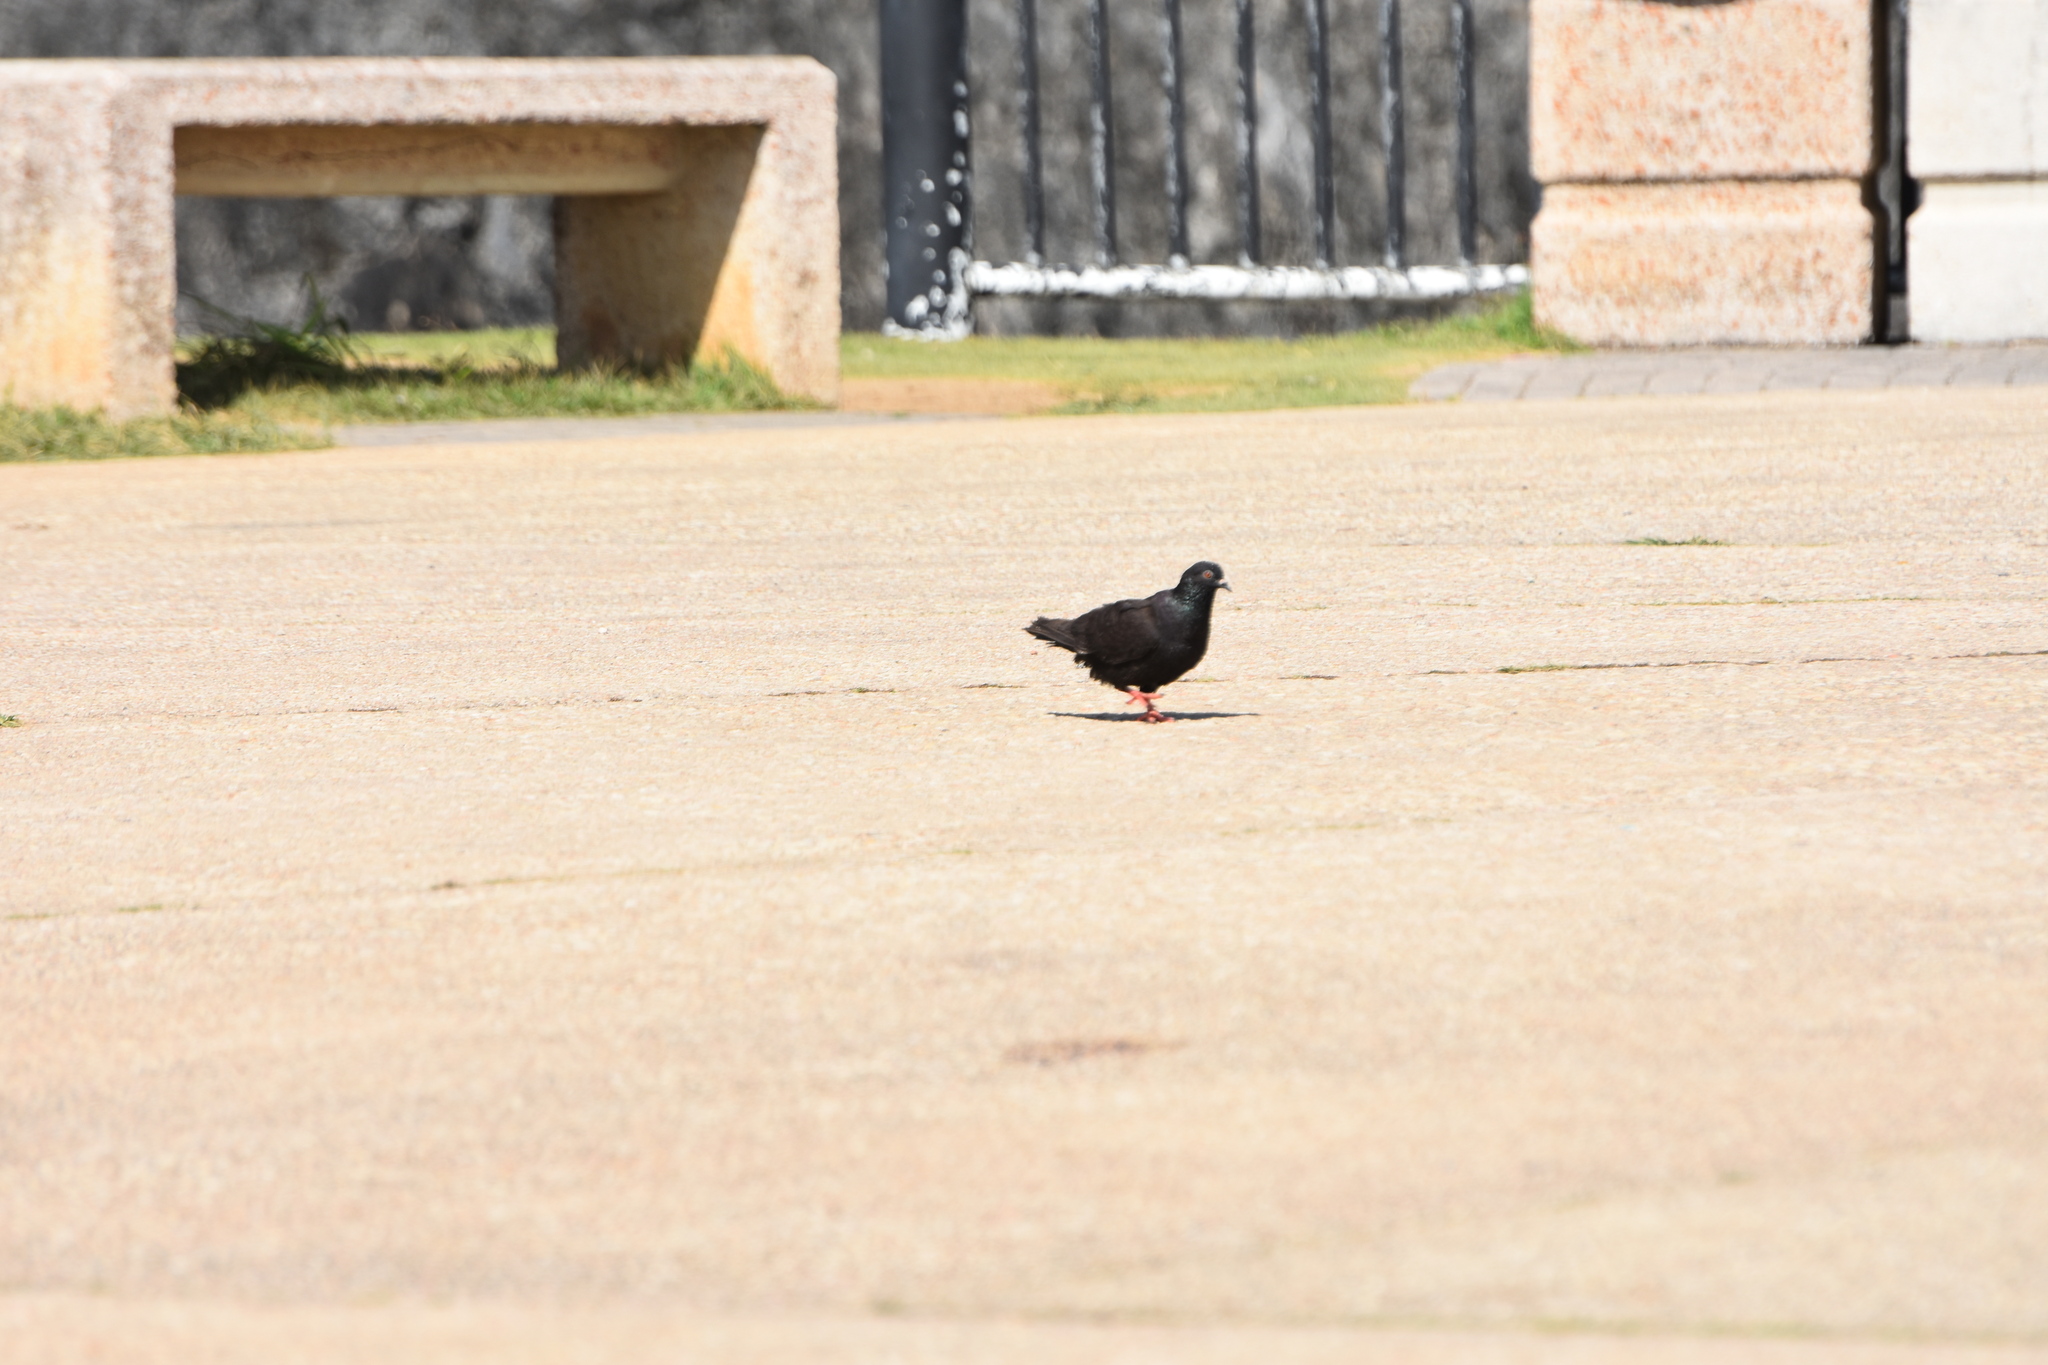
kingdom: Animalia
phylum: Chordata
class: Aves
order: Columbiformes
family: Columbidae
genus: Columba
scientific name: Columba livia
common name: Rock pigeon
